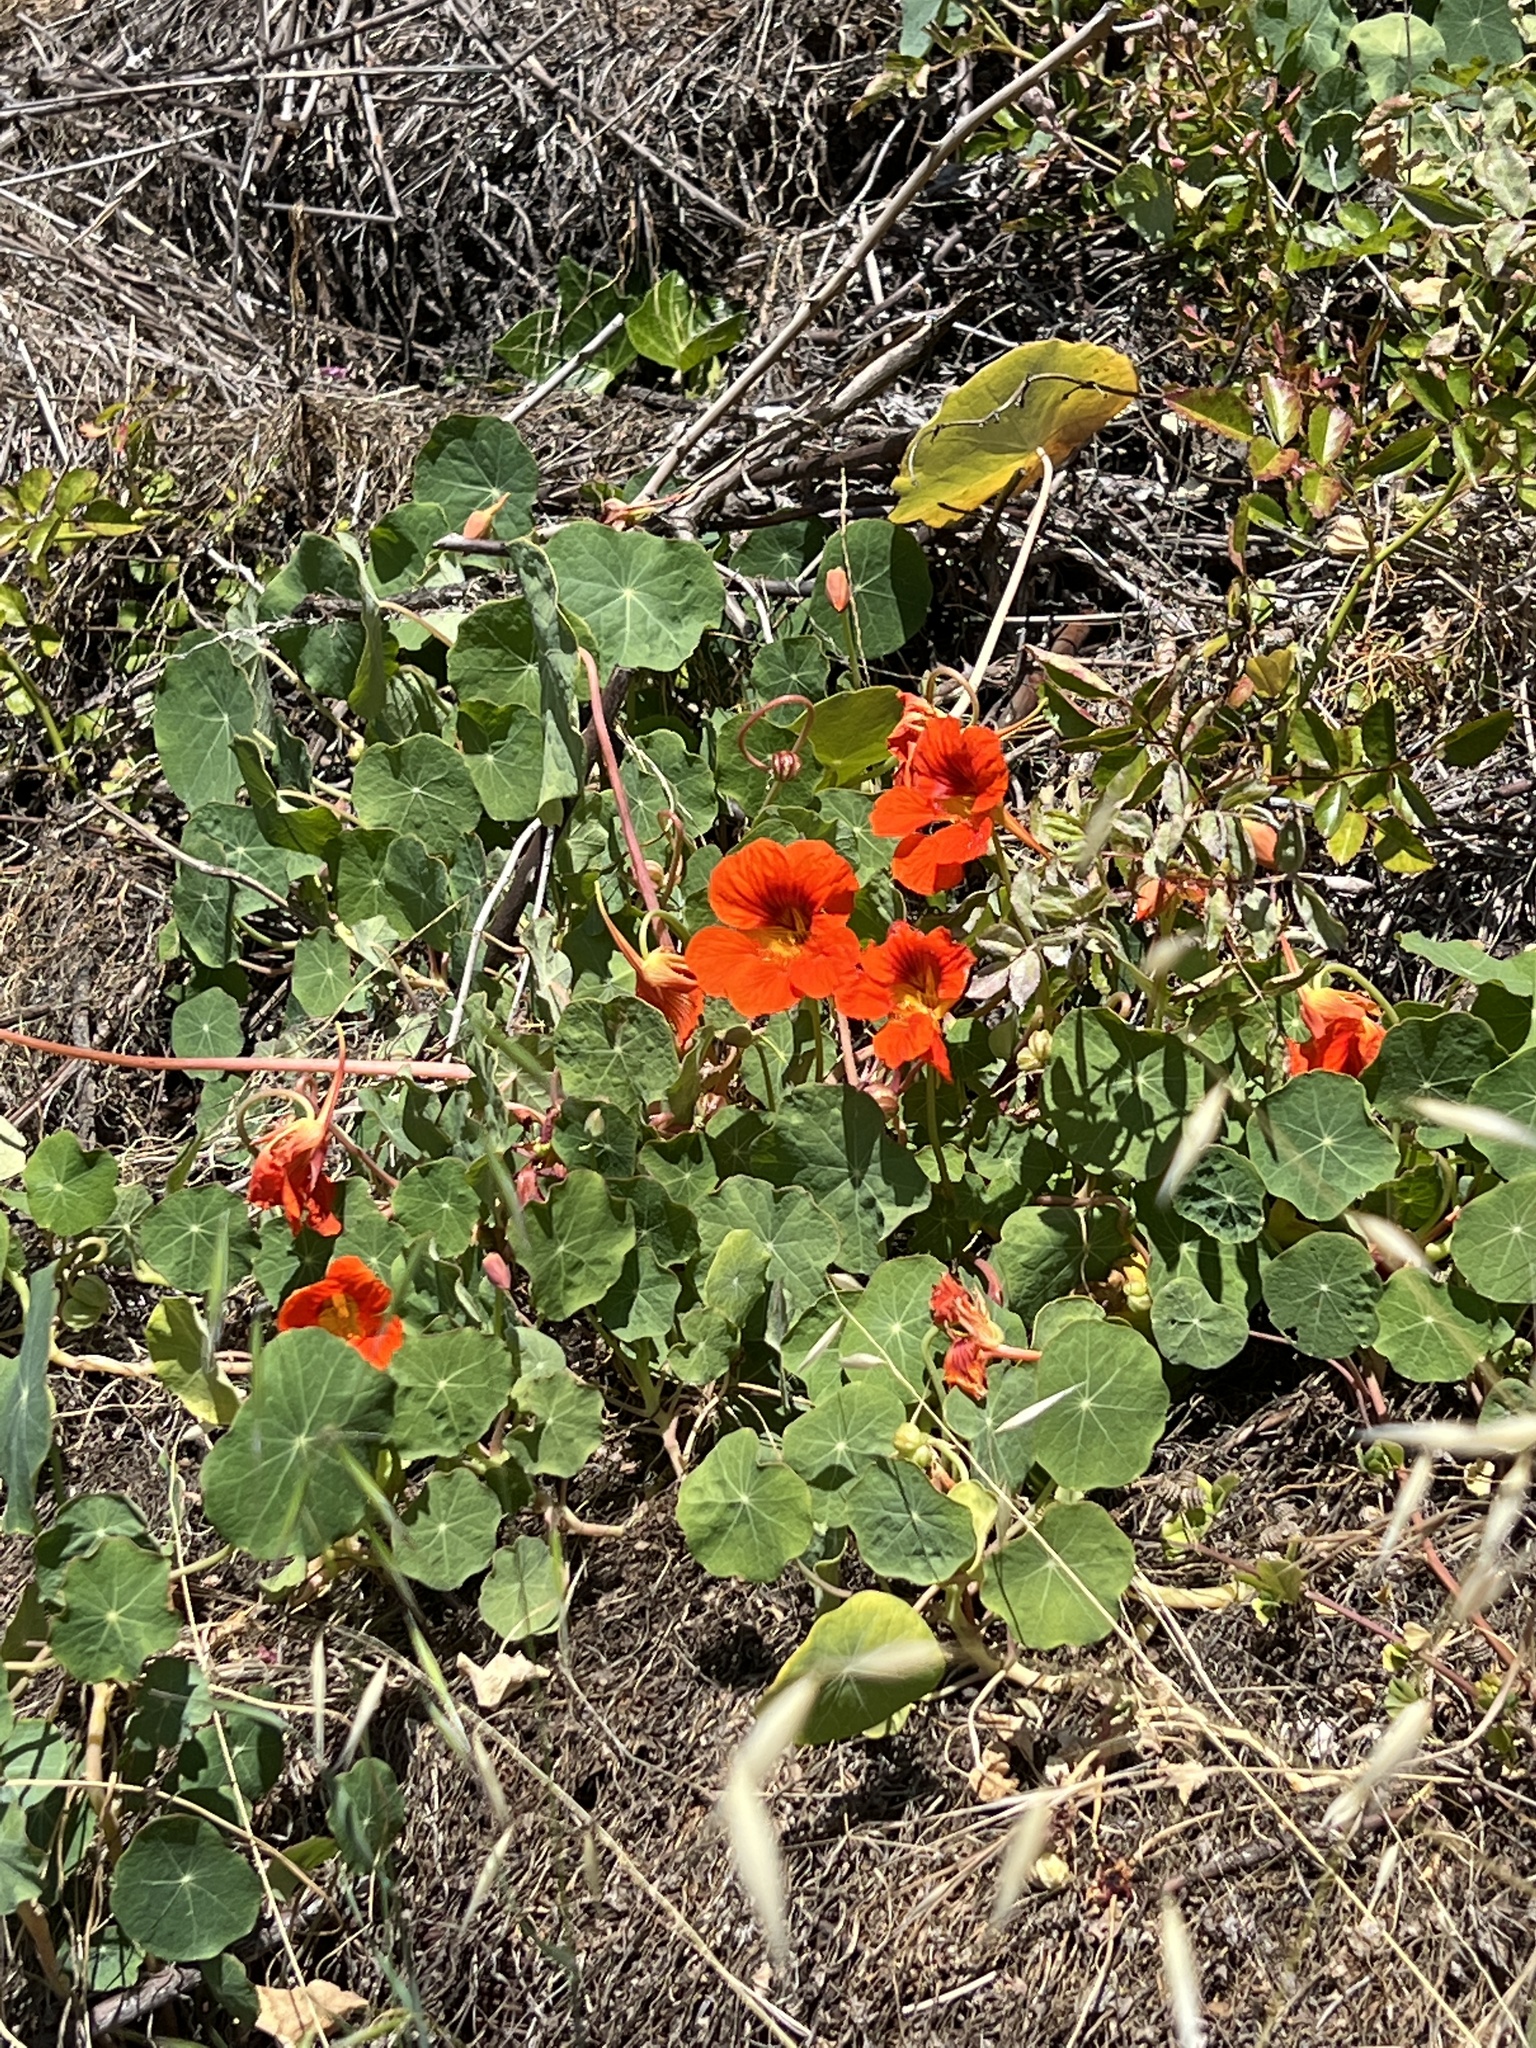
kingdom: Plantae
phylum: Tracheophyta
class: Magnoliopsida
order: Brassicales
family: Tropaeolaceae
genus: Tropaeolum
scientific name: Tropaeolum majus
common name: Nasturtium
